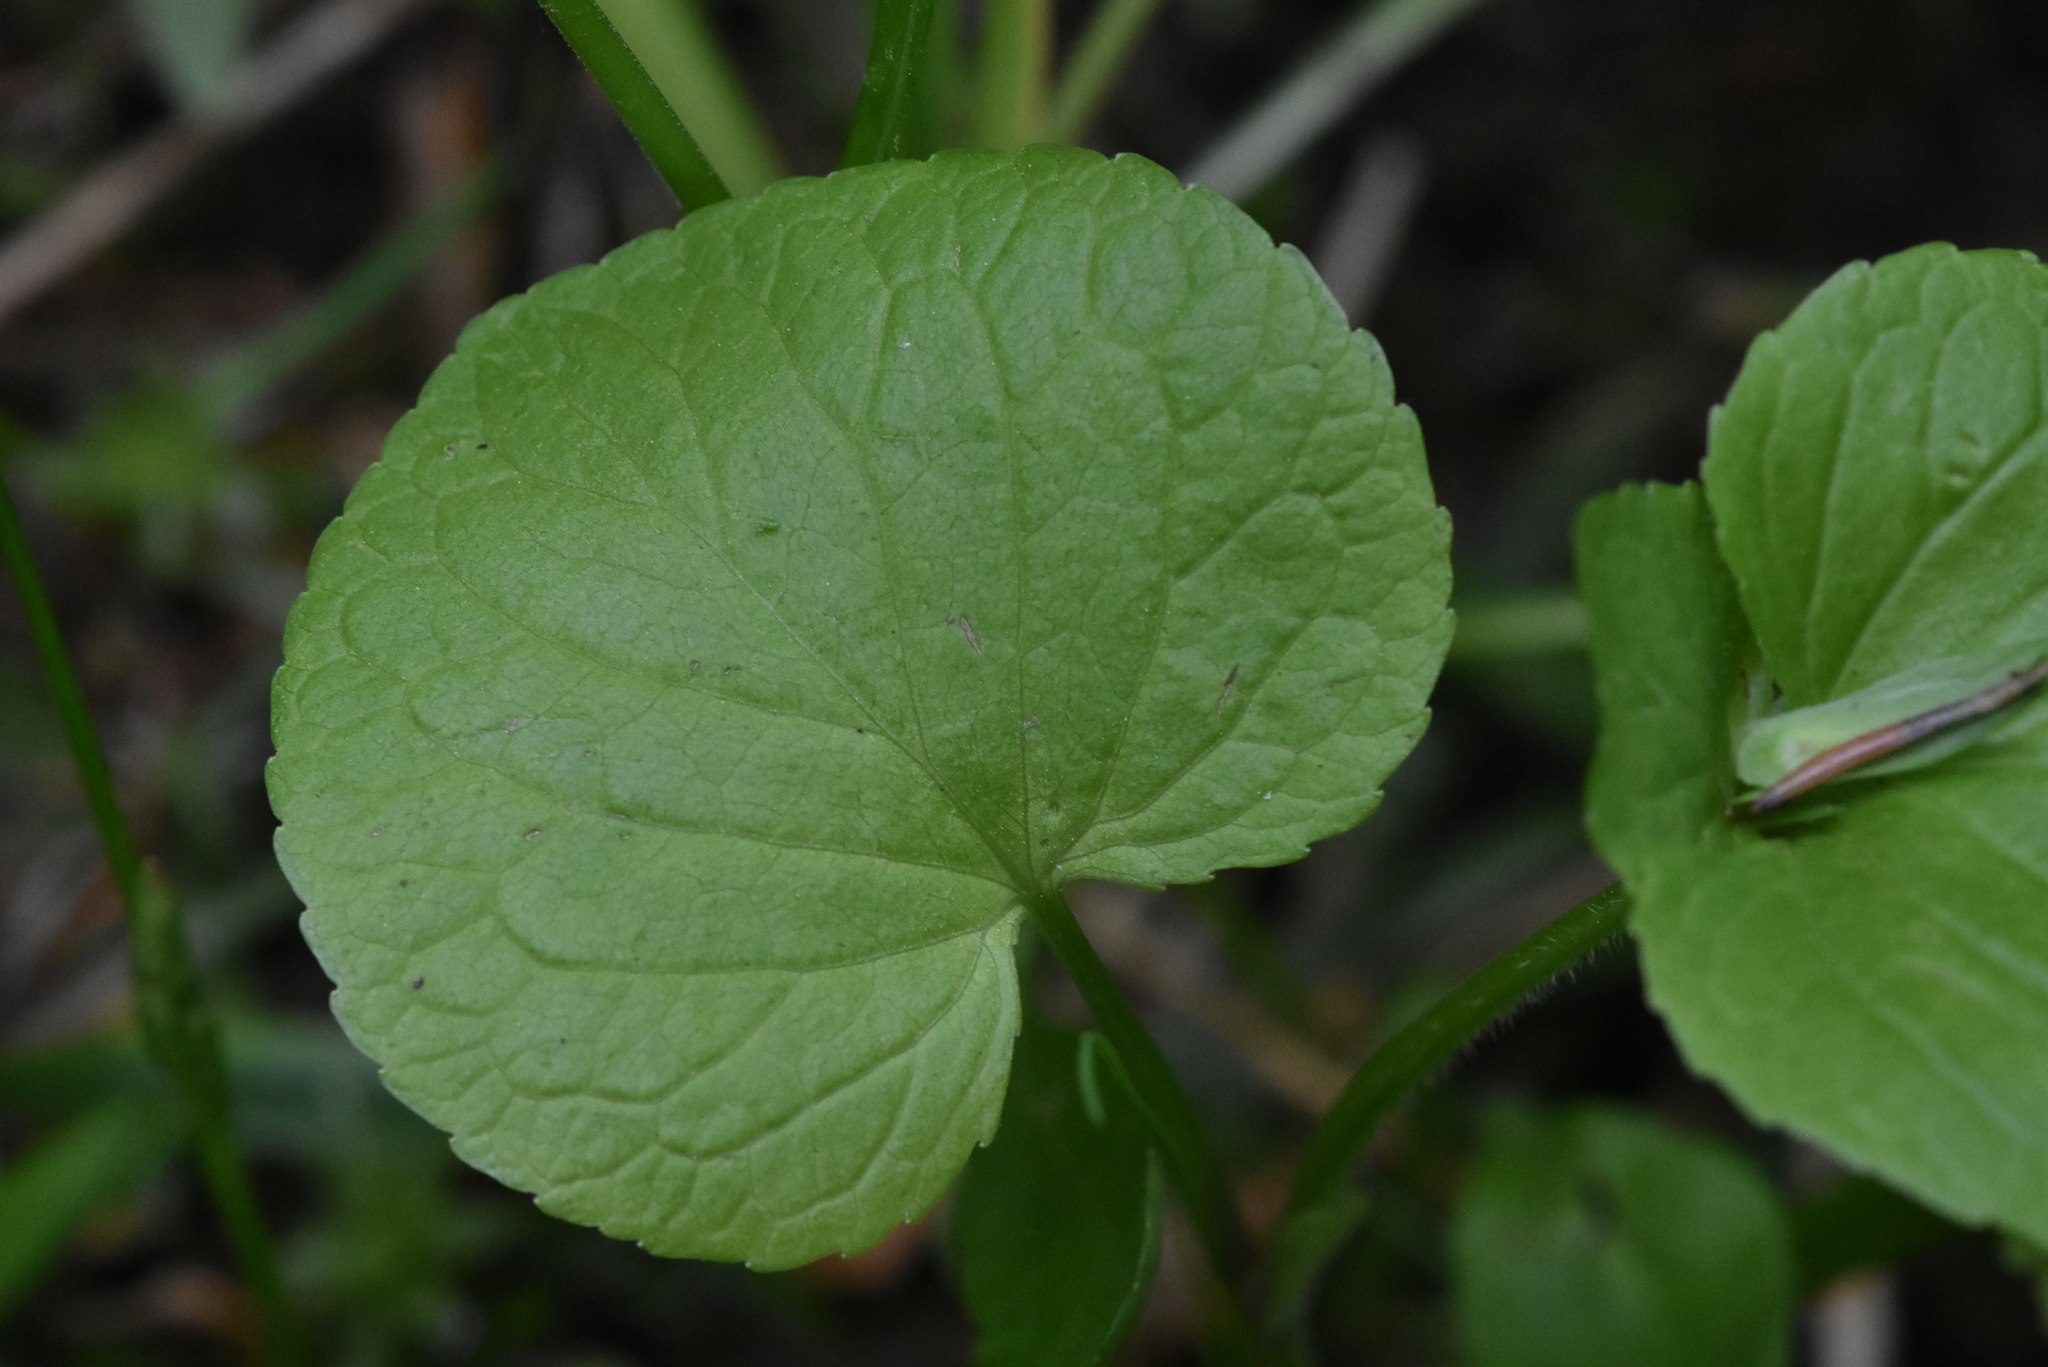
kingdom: Plantae
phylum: Tracheophyta
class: Magnoliopsida
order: Malpighiales
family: Violaceae
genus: Viola
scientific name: Viola mirabilis
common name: Wonder violet
